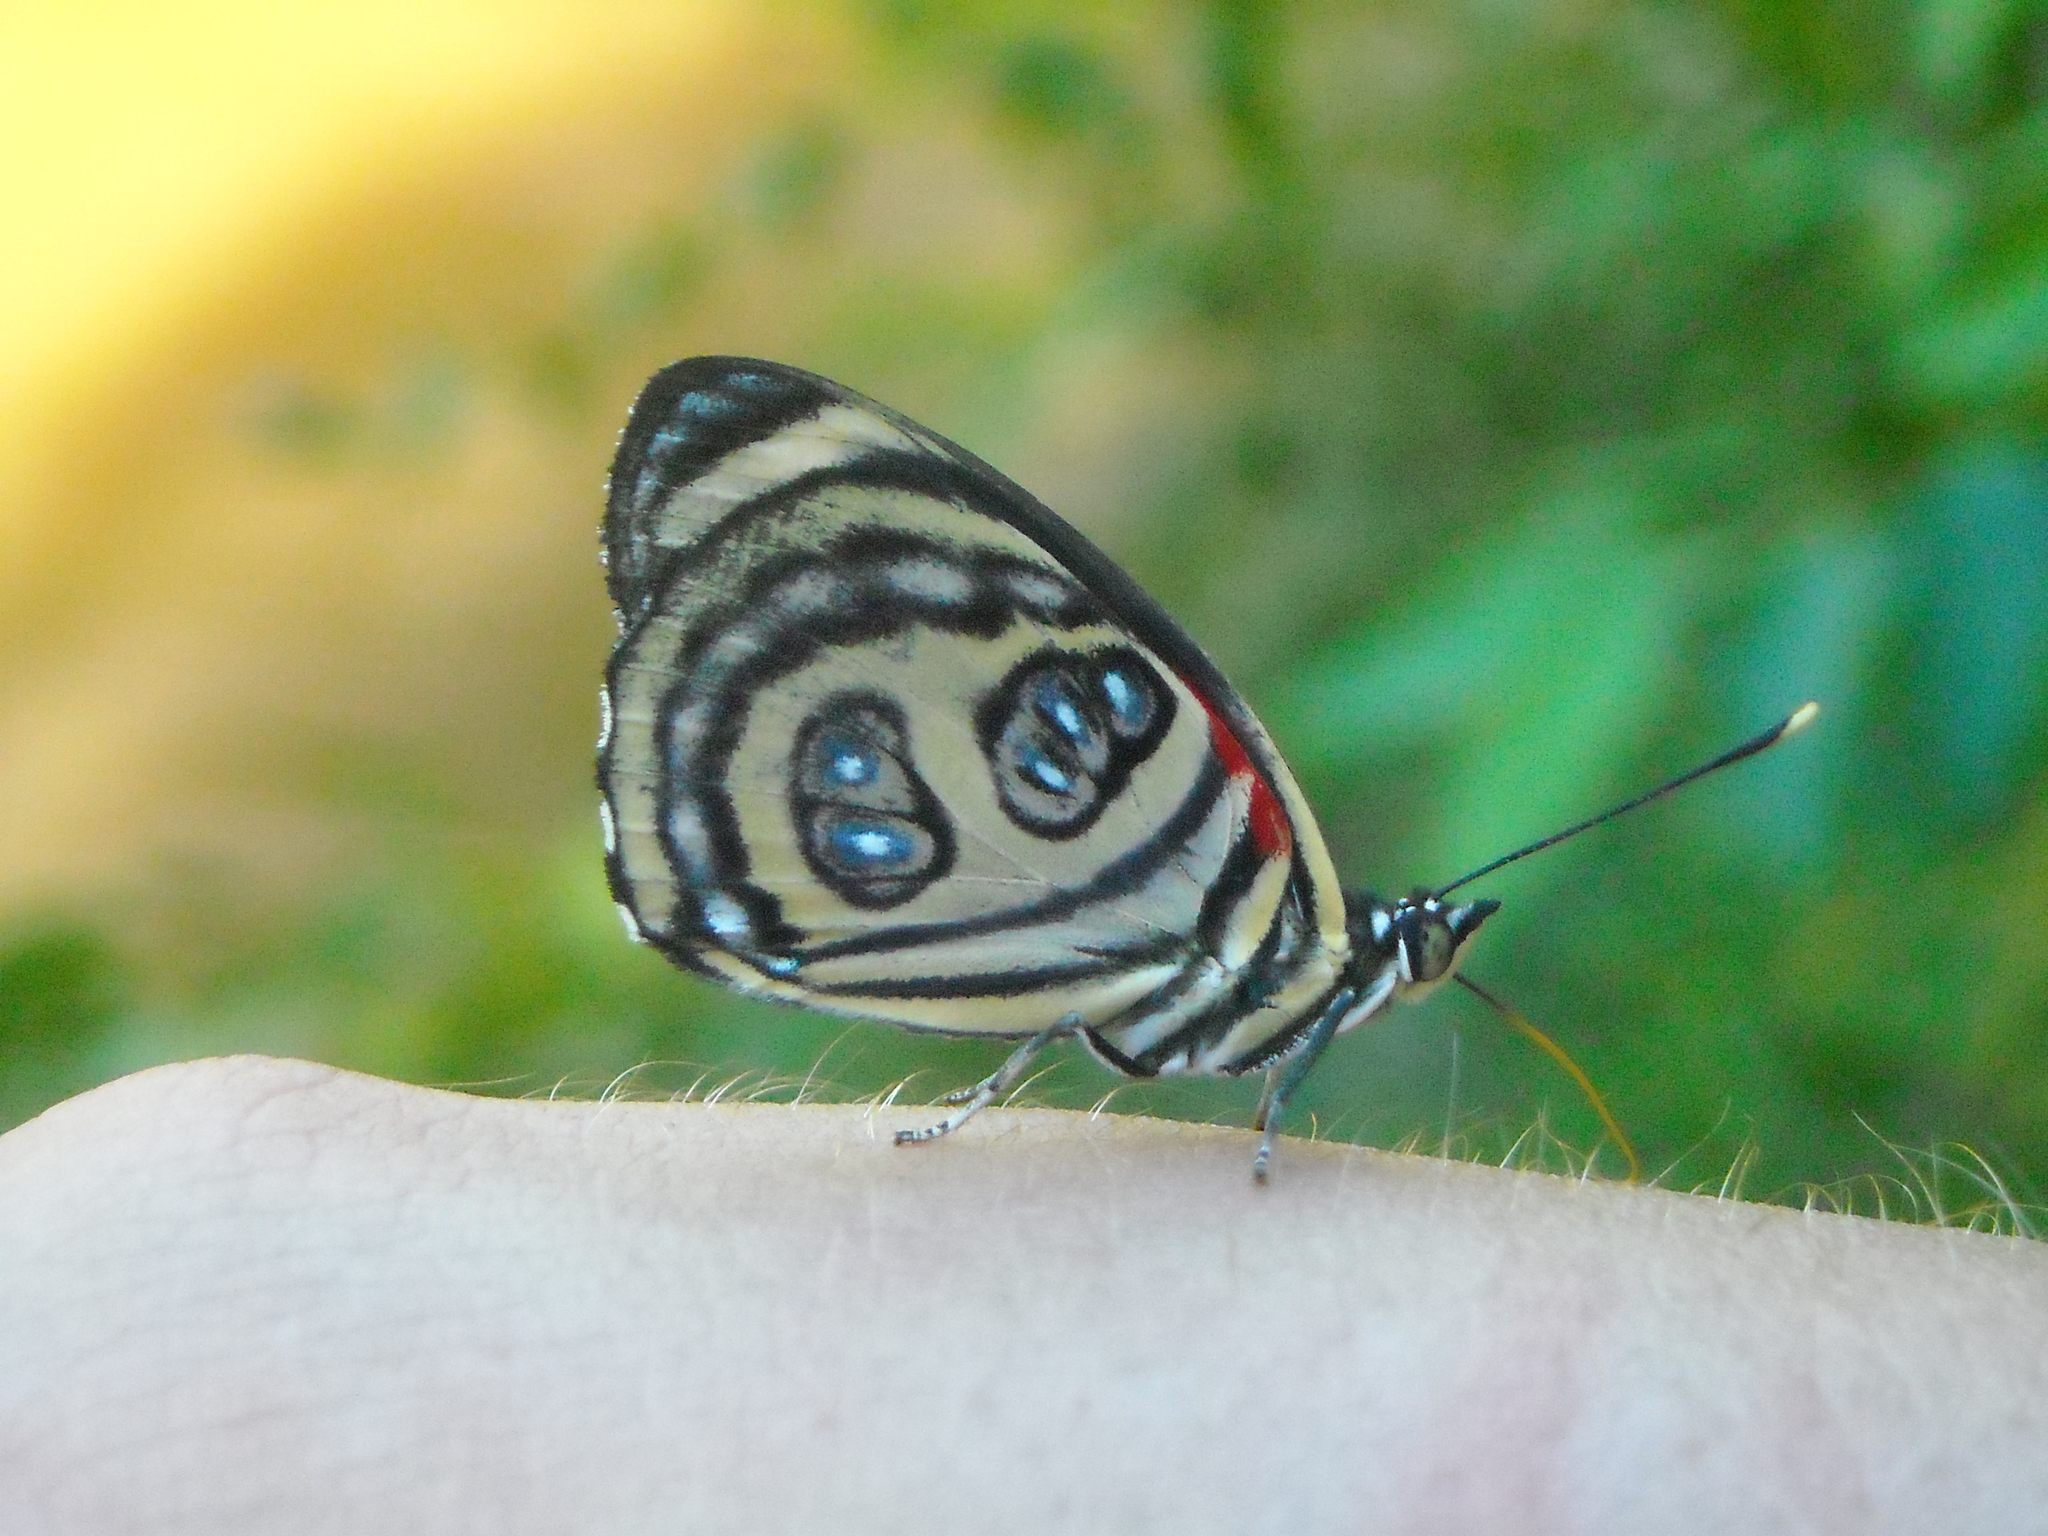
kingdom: Animalia
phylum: Arthropoda
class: Insecta
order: Lepidoptera
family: Nymphalidae
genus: Catagramma
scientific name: Catagramma pygas
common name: Godart's numberwing
